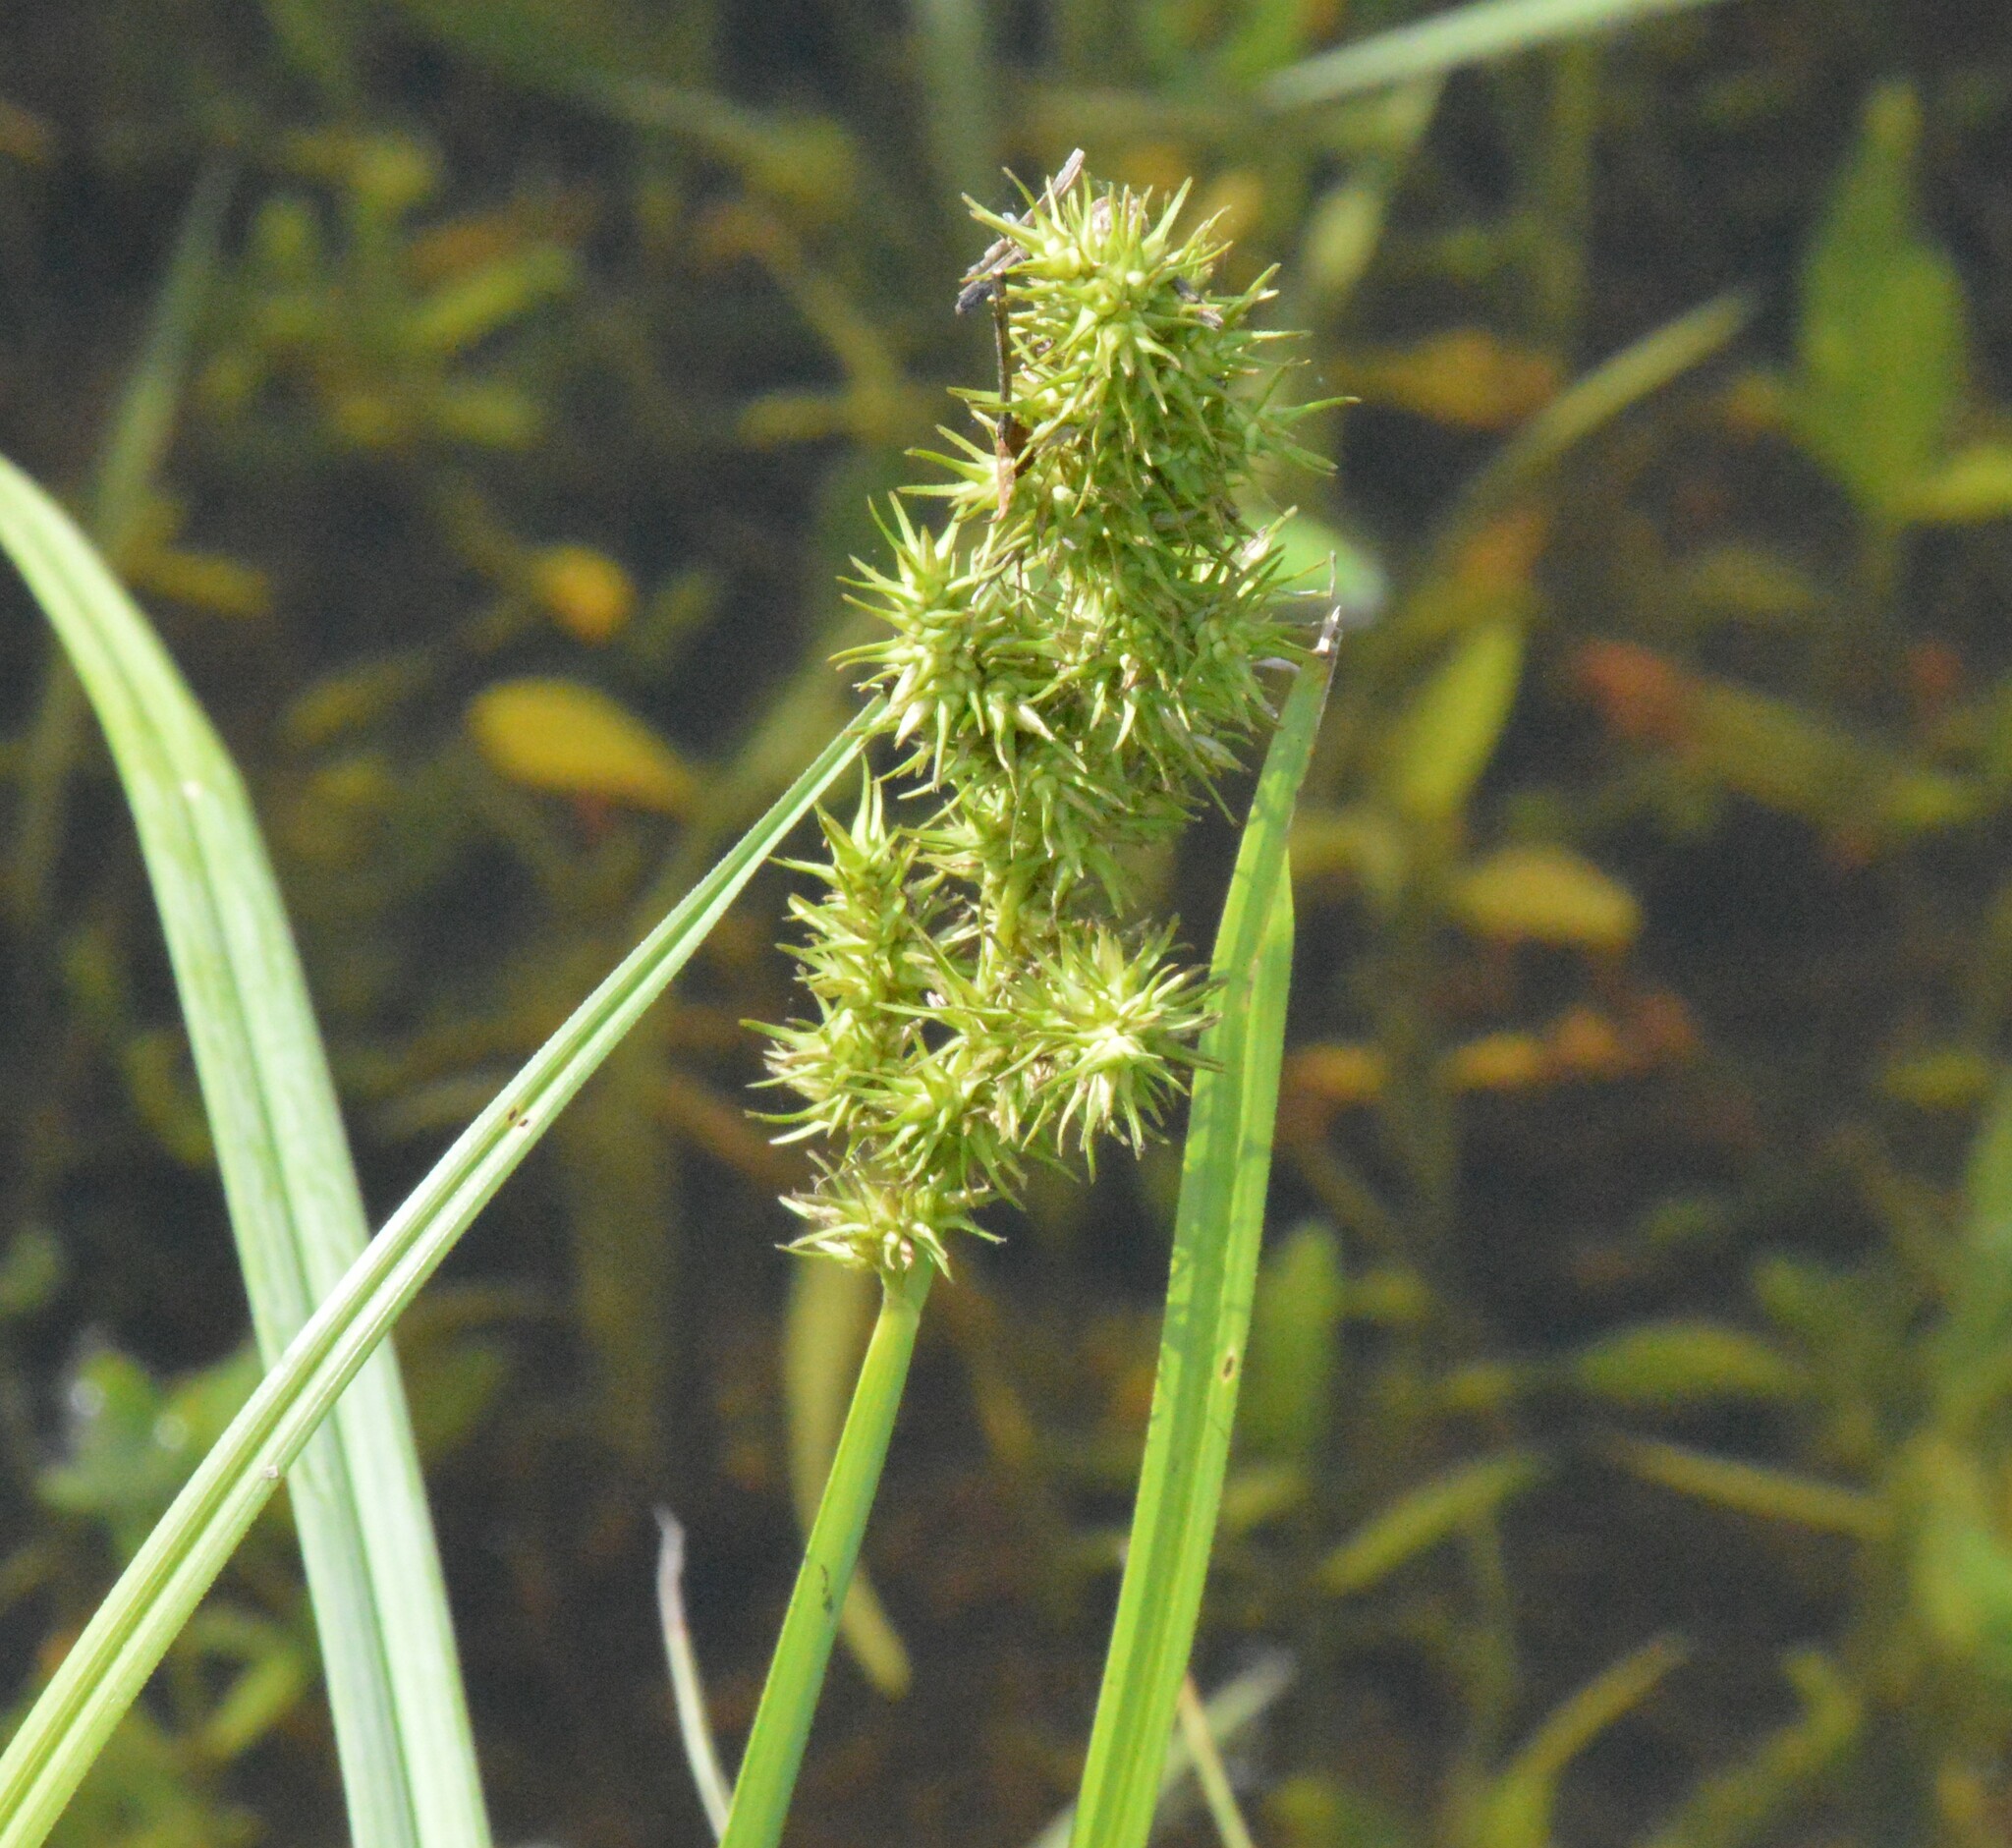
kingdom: Plantae
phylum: Tracheophyta
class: Liliopsida
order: Poales
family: Cyperaceae
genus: Carex
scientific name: Carex crus-corvi
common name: Crow-spur sedge
